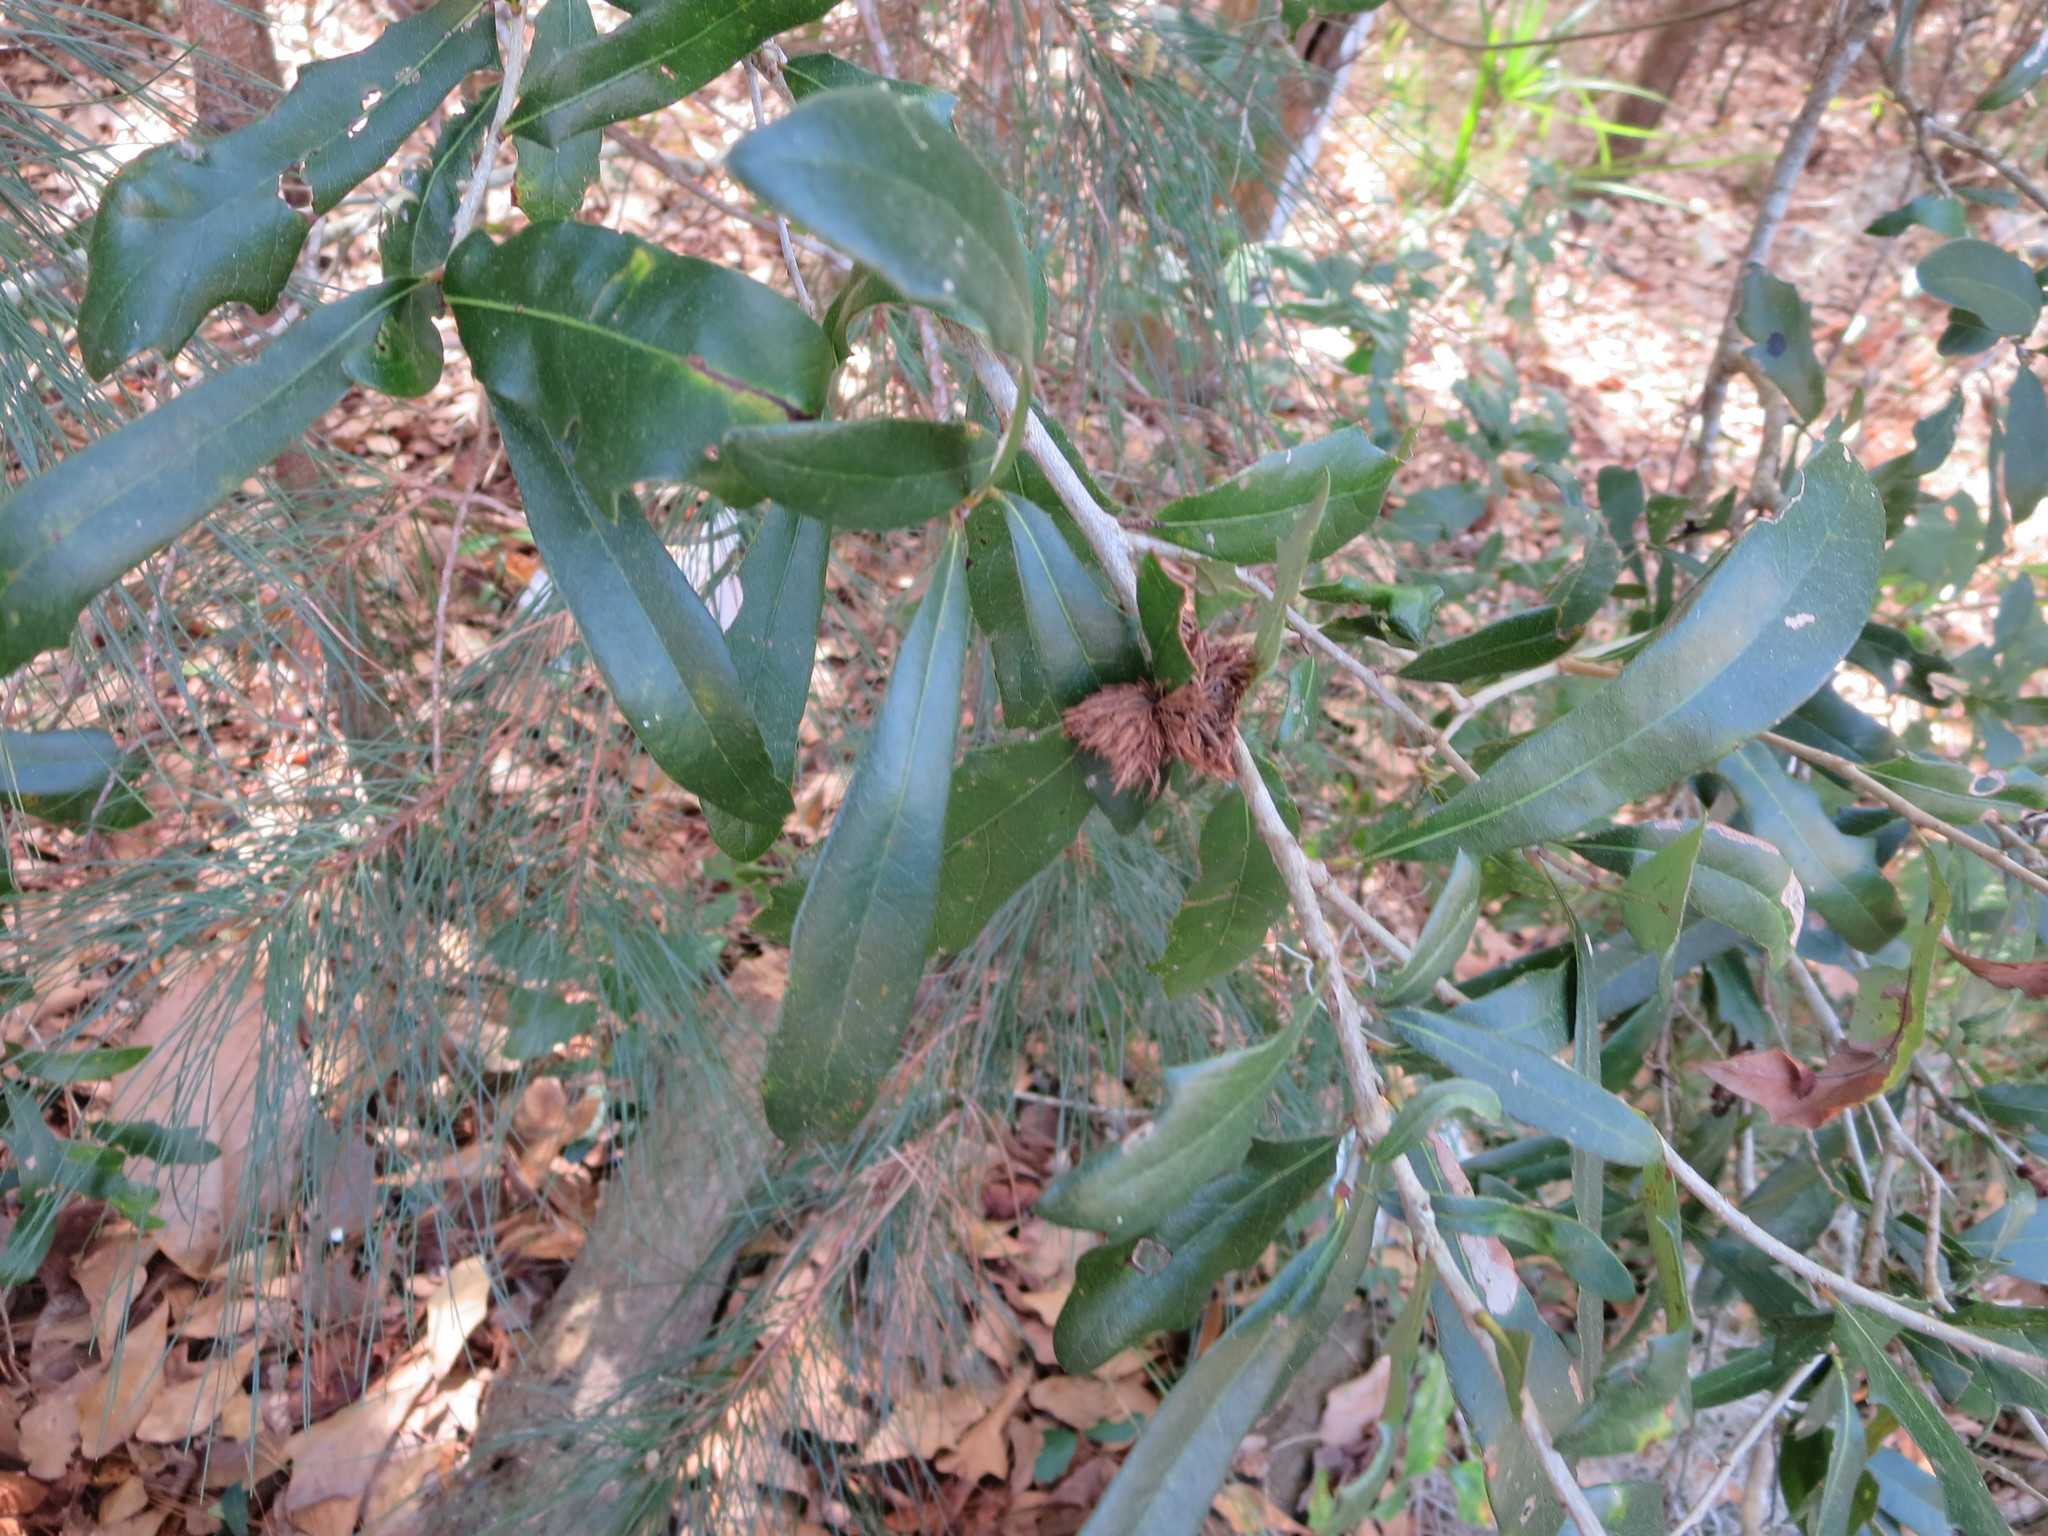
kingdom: Plantae
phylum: Tracheophyta
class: Magnoliopsida
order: Fagales
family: Fagaceae
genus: Quercus
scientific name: Quercus virginiana
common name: Southern live oak
